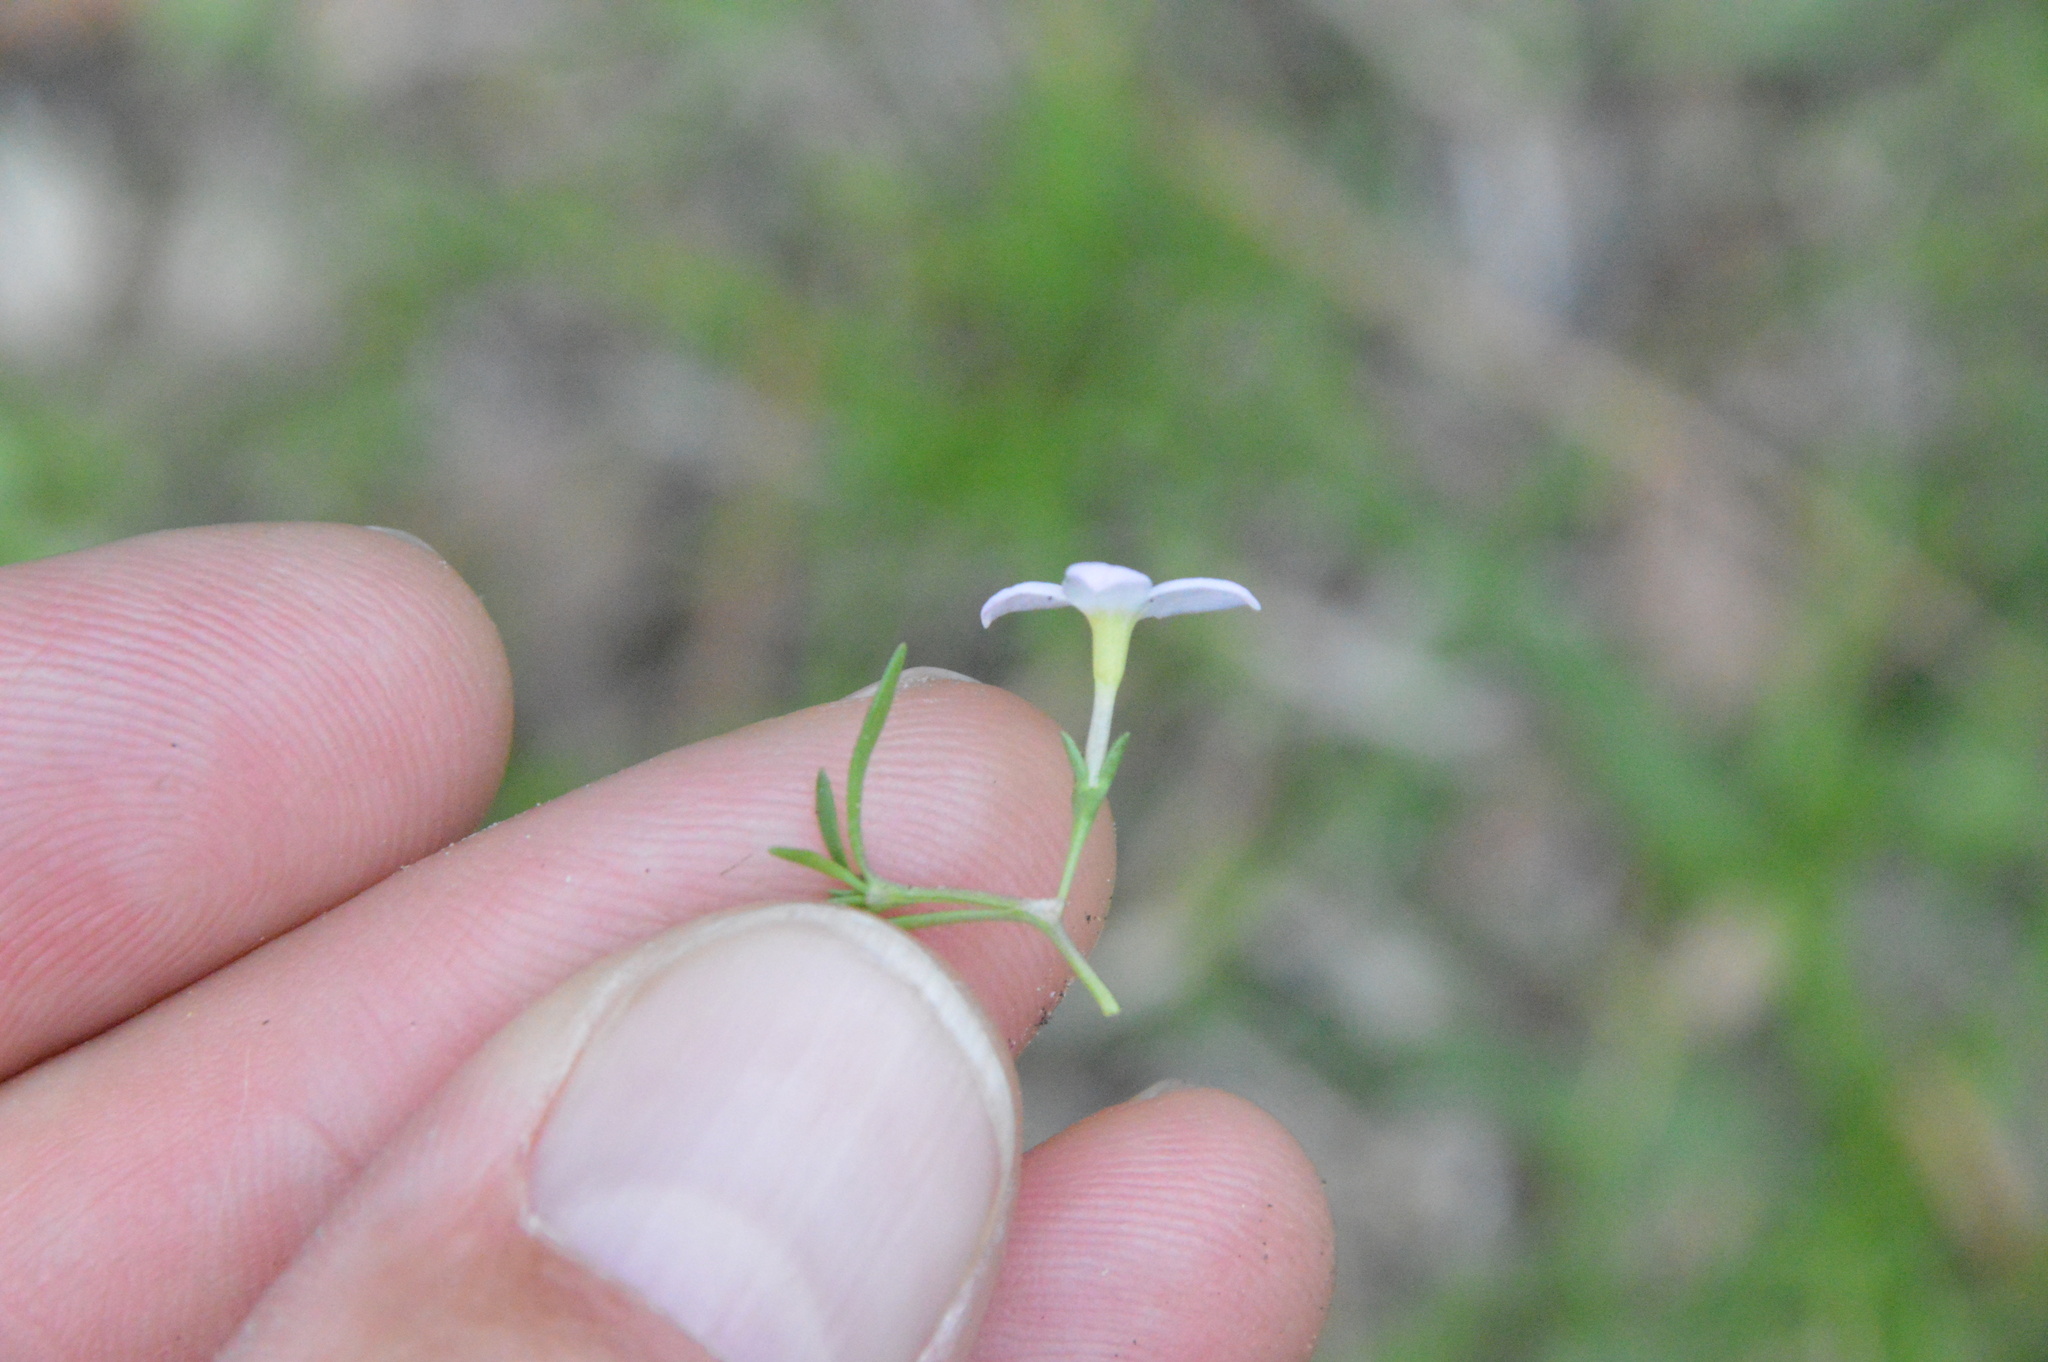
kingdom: Plantae
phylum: Tracheophyta
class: Magnoliopsida
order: Gentianales
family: Rubiaceae
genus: Houstonia
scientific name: Houstonia rosea
